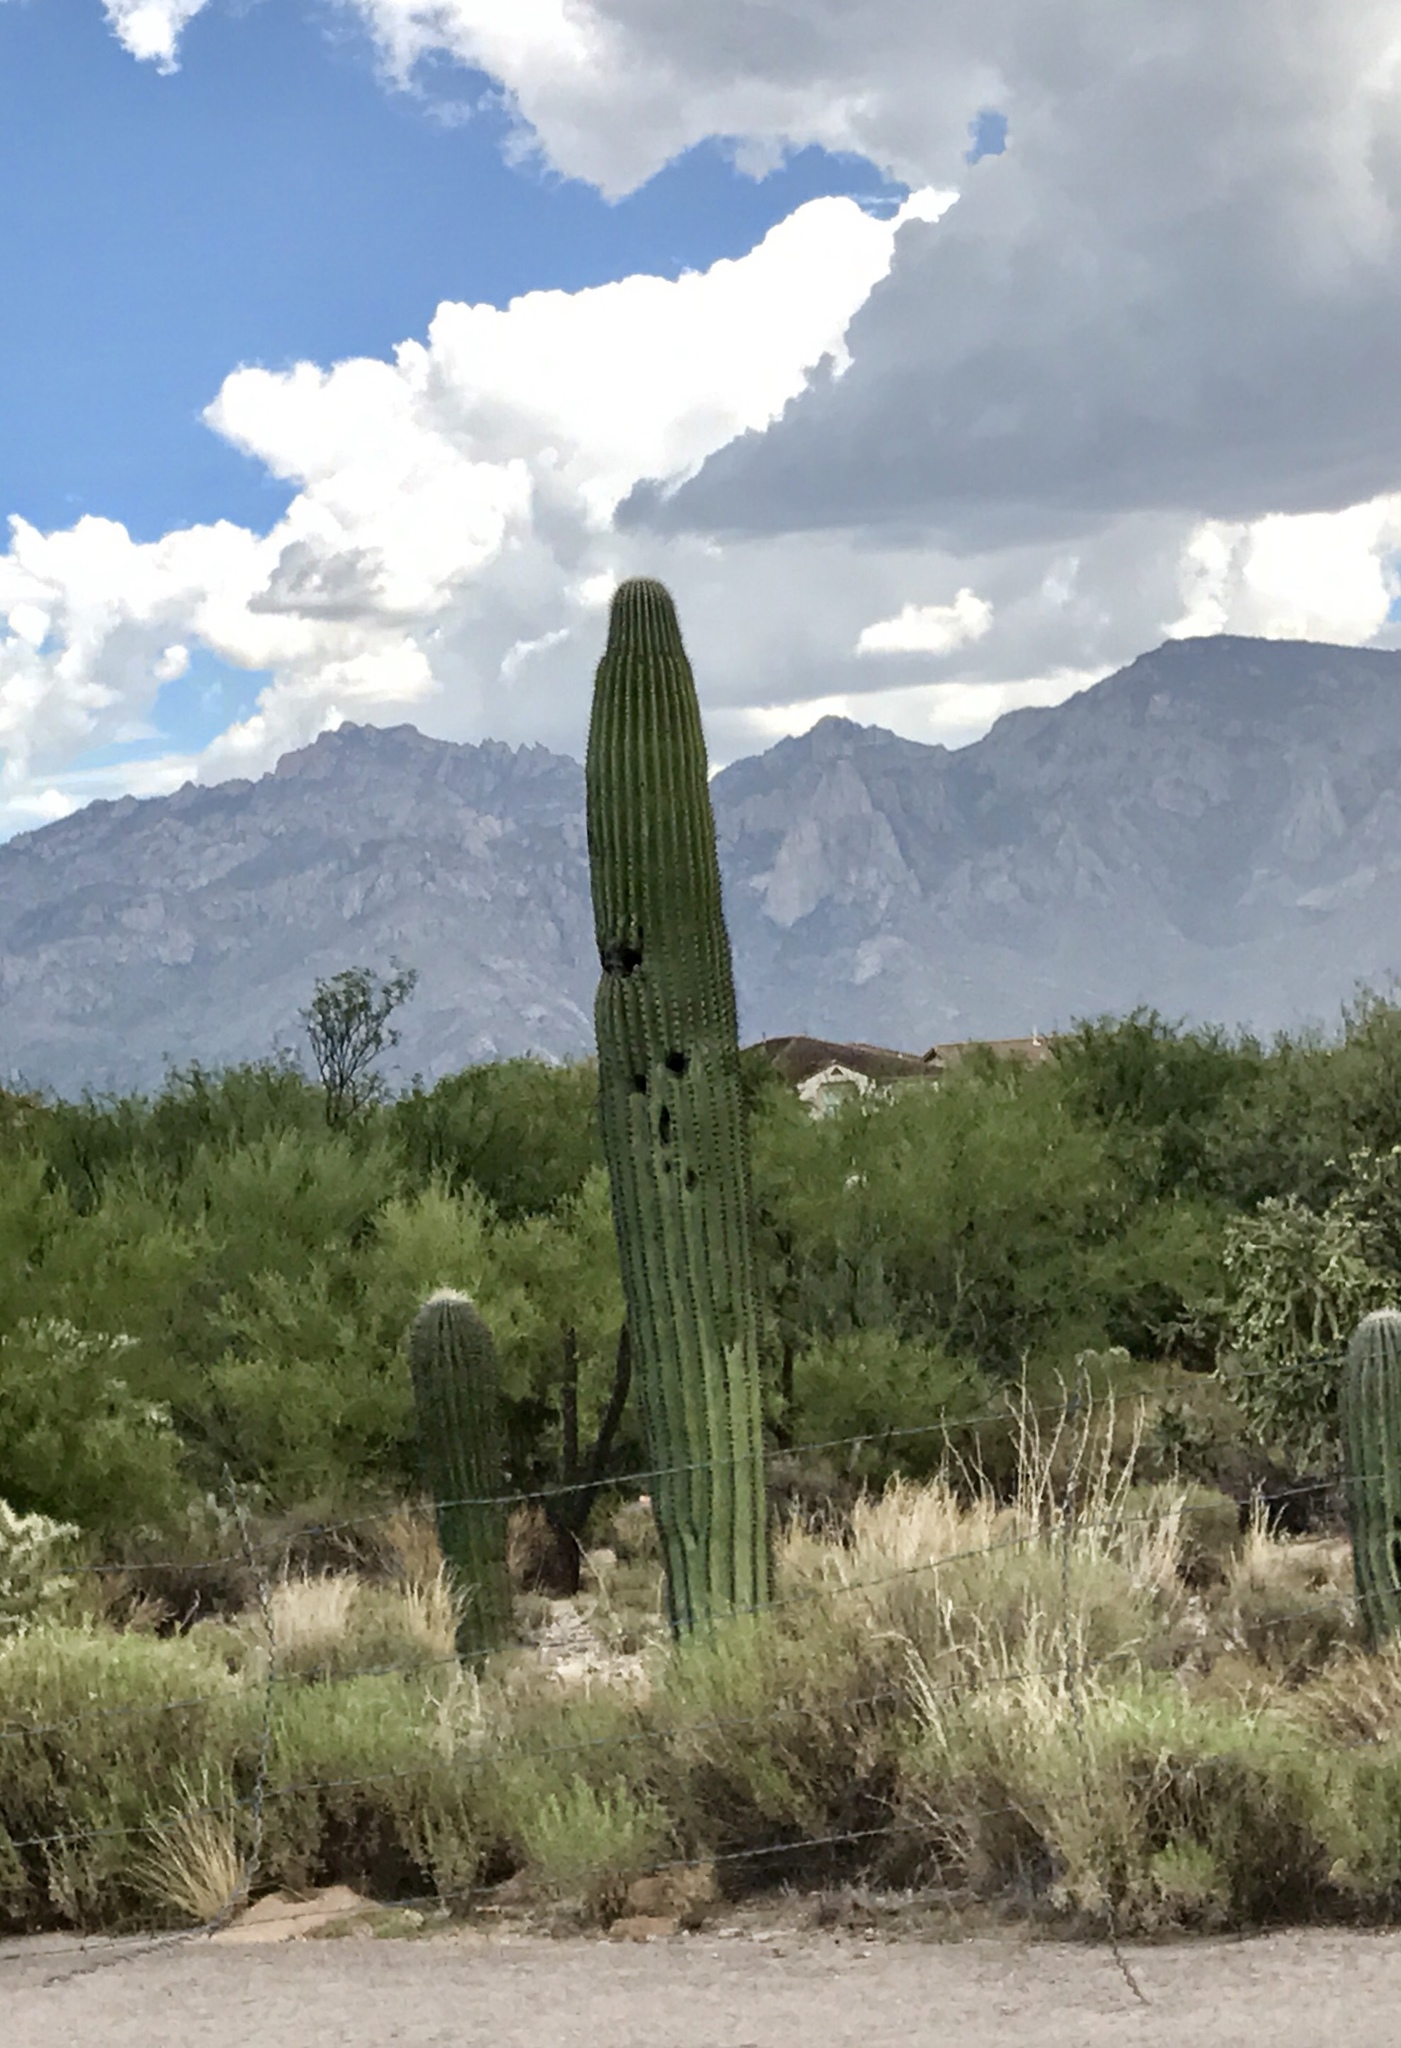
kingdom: Plantae
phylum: Tracheophyta
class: Magnoliopsida
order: Caryophyllales
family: Cactaceae
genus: Carnegiea
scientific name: Carnegiea gigantea
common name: Saguaro
